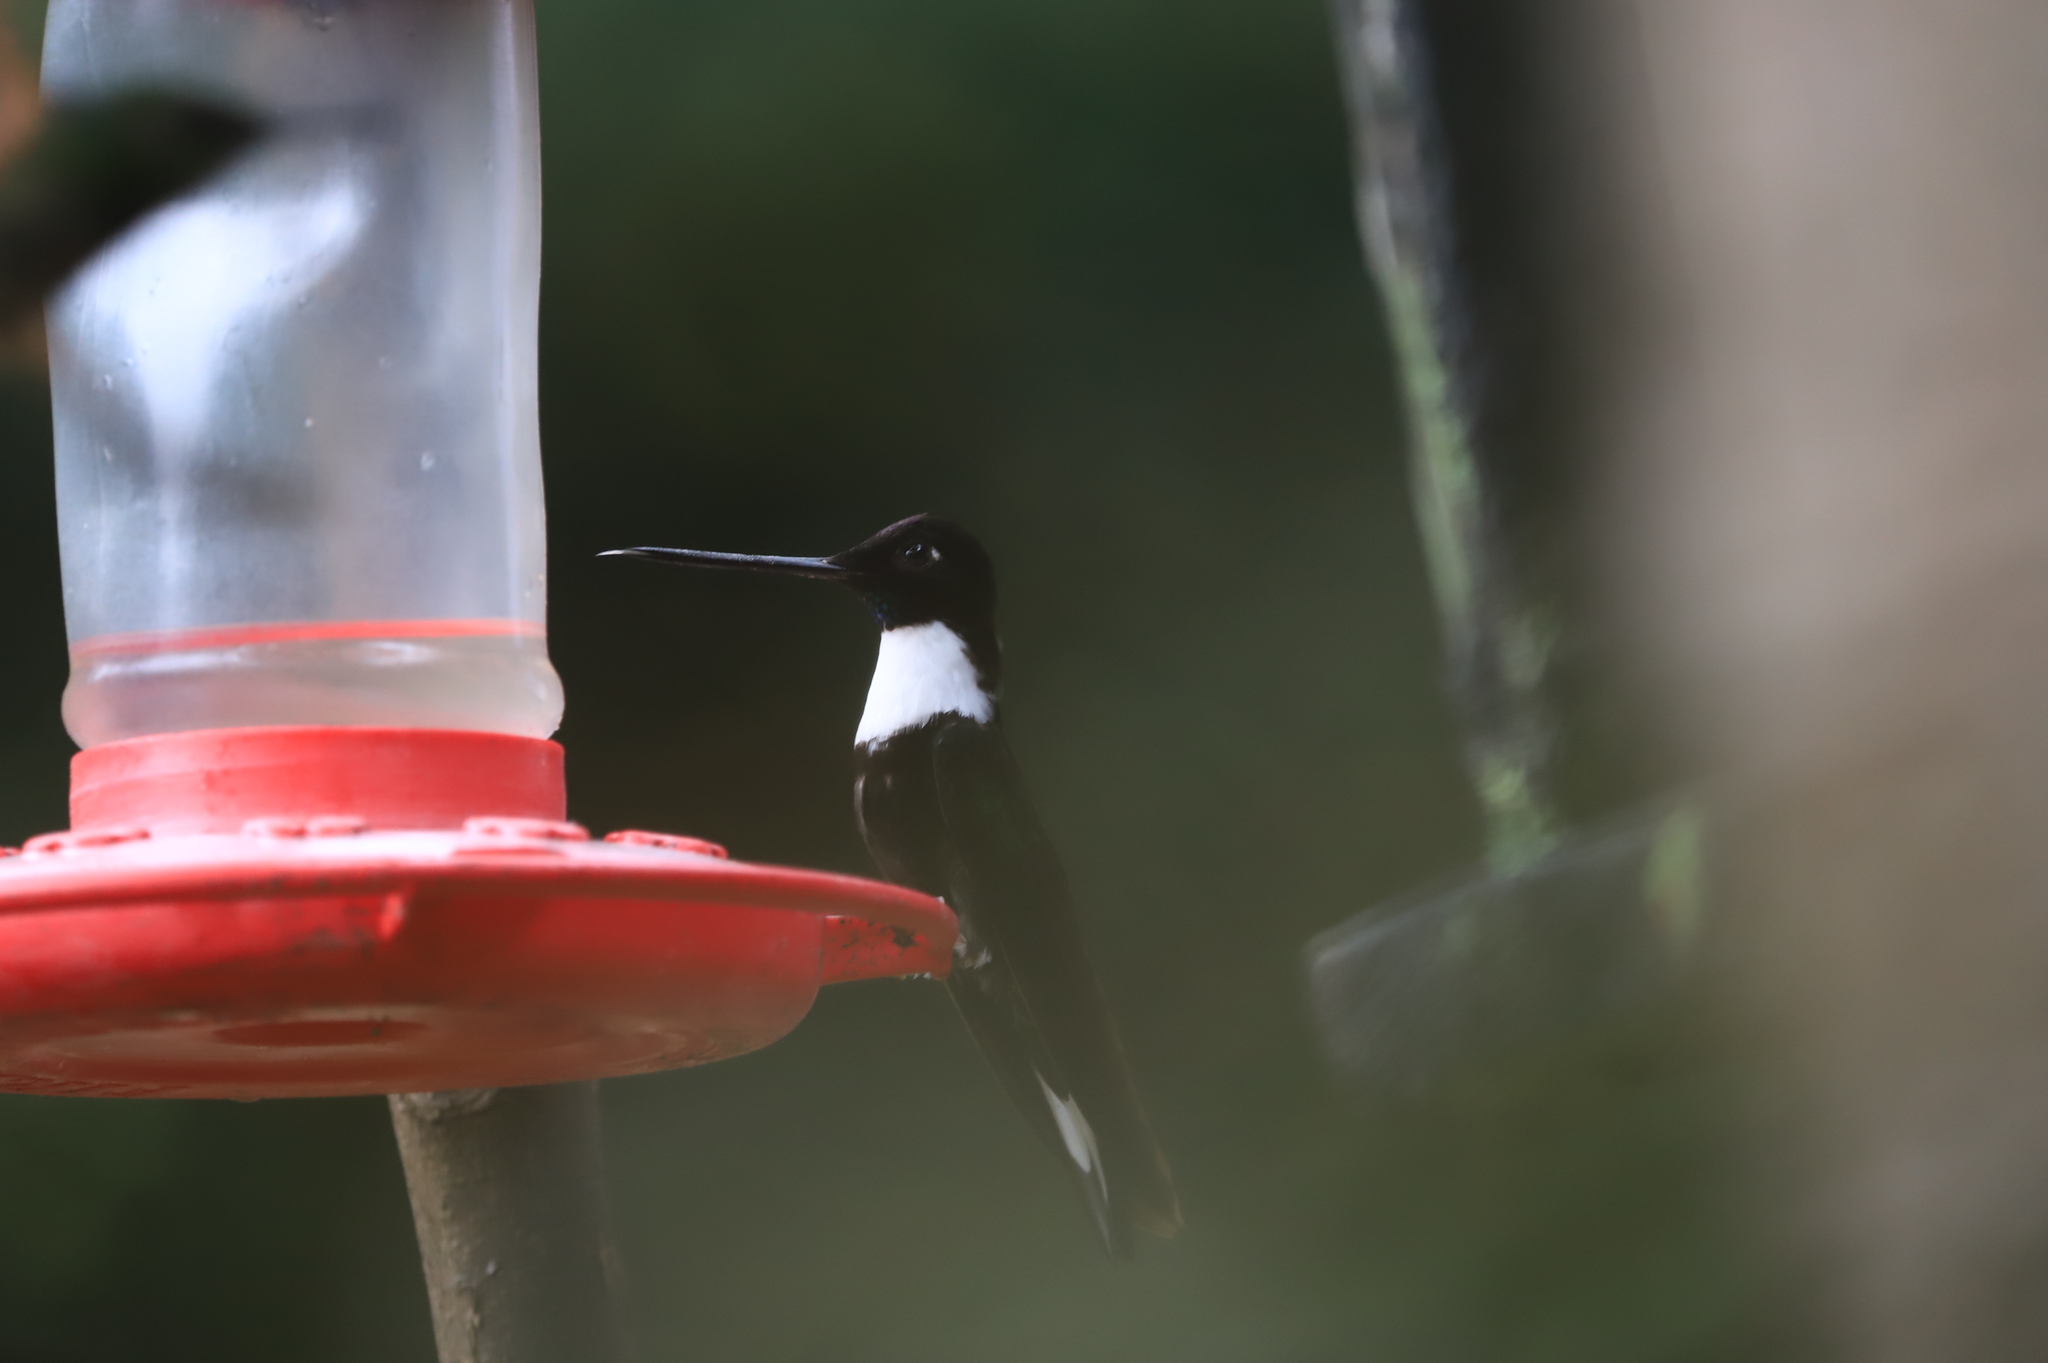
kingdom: Animalia
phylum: Chordata
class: Aves
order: Apodiformes
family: Trochilidae
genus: Coeligena
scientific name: Coeligena torquata
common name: Collared inca
